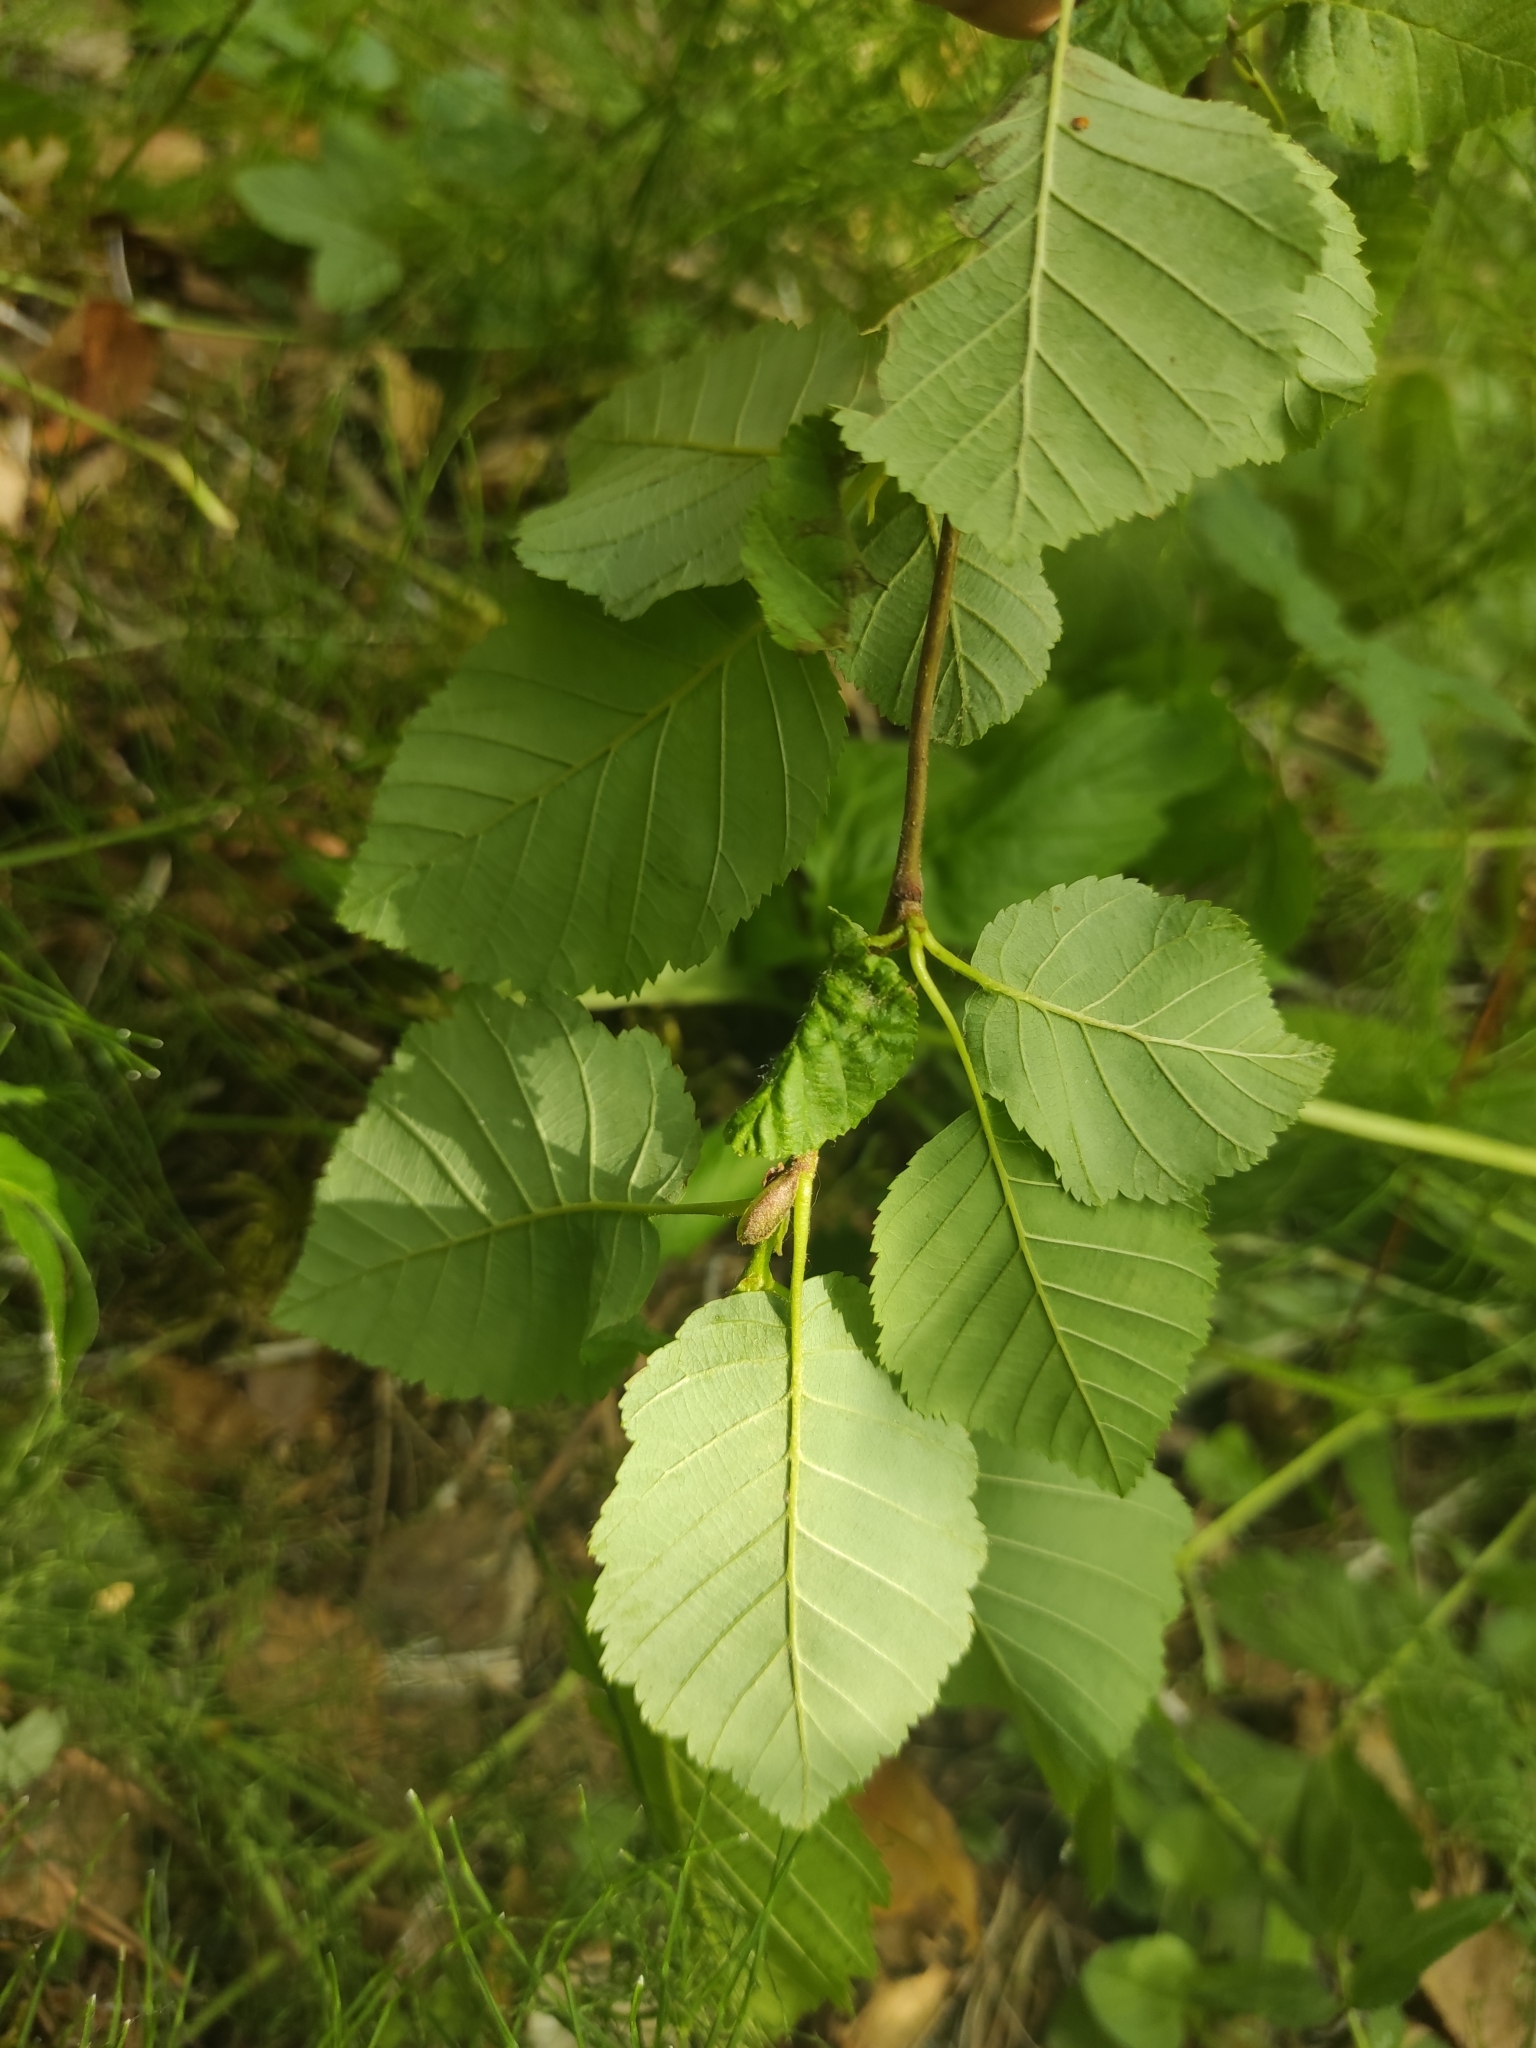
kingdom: Plantae
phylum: Tracheophyta
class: Magnoliopsida
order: Fagales
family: Betulaceae
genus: Alnus
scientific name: Alnus incana
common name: Grey alder
